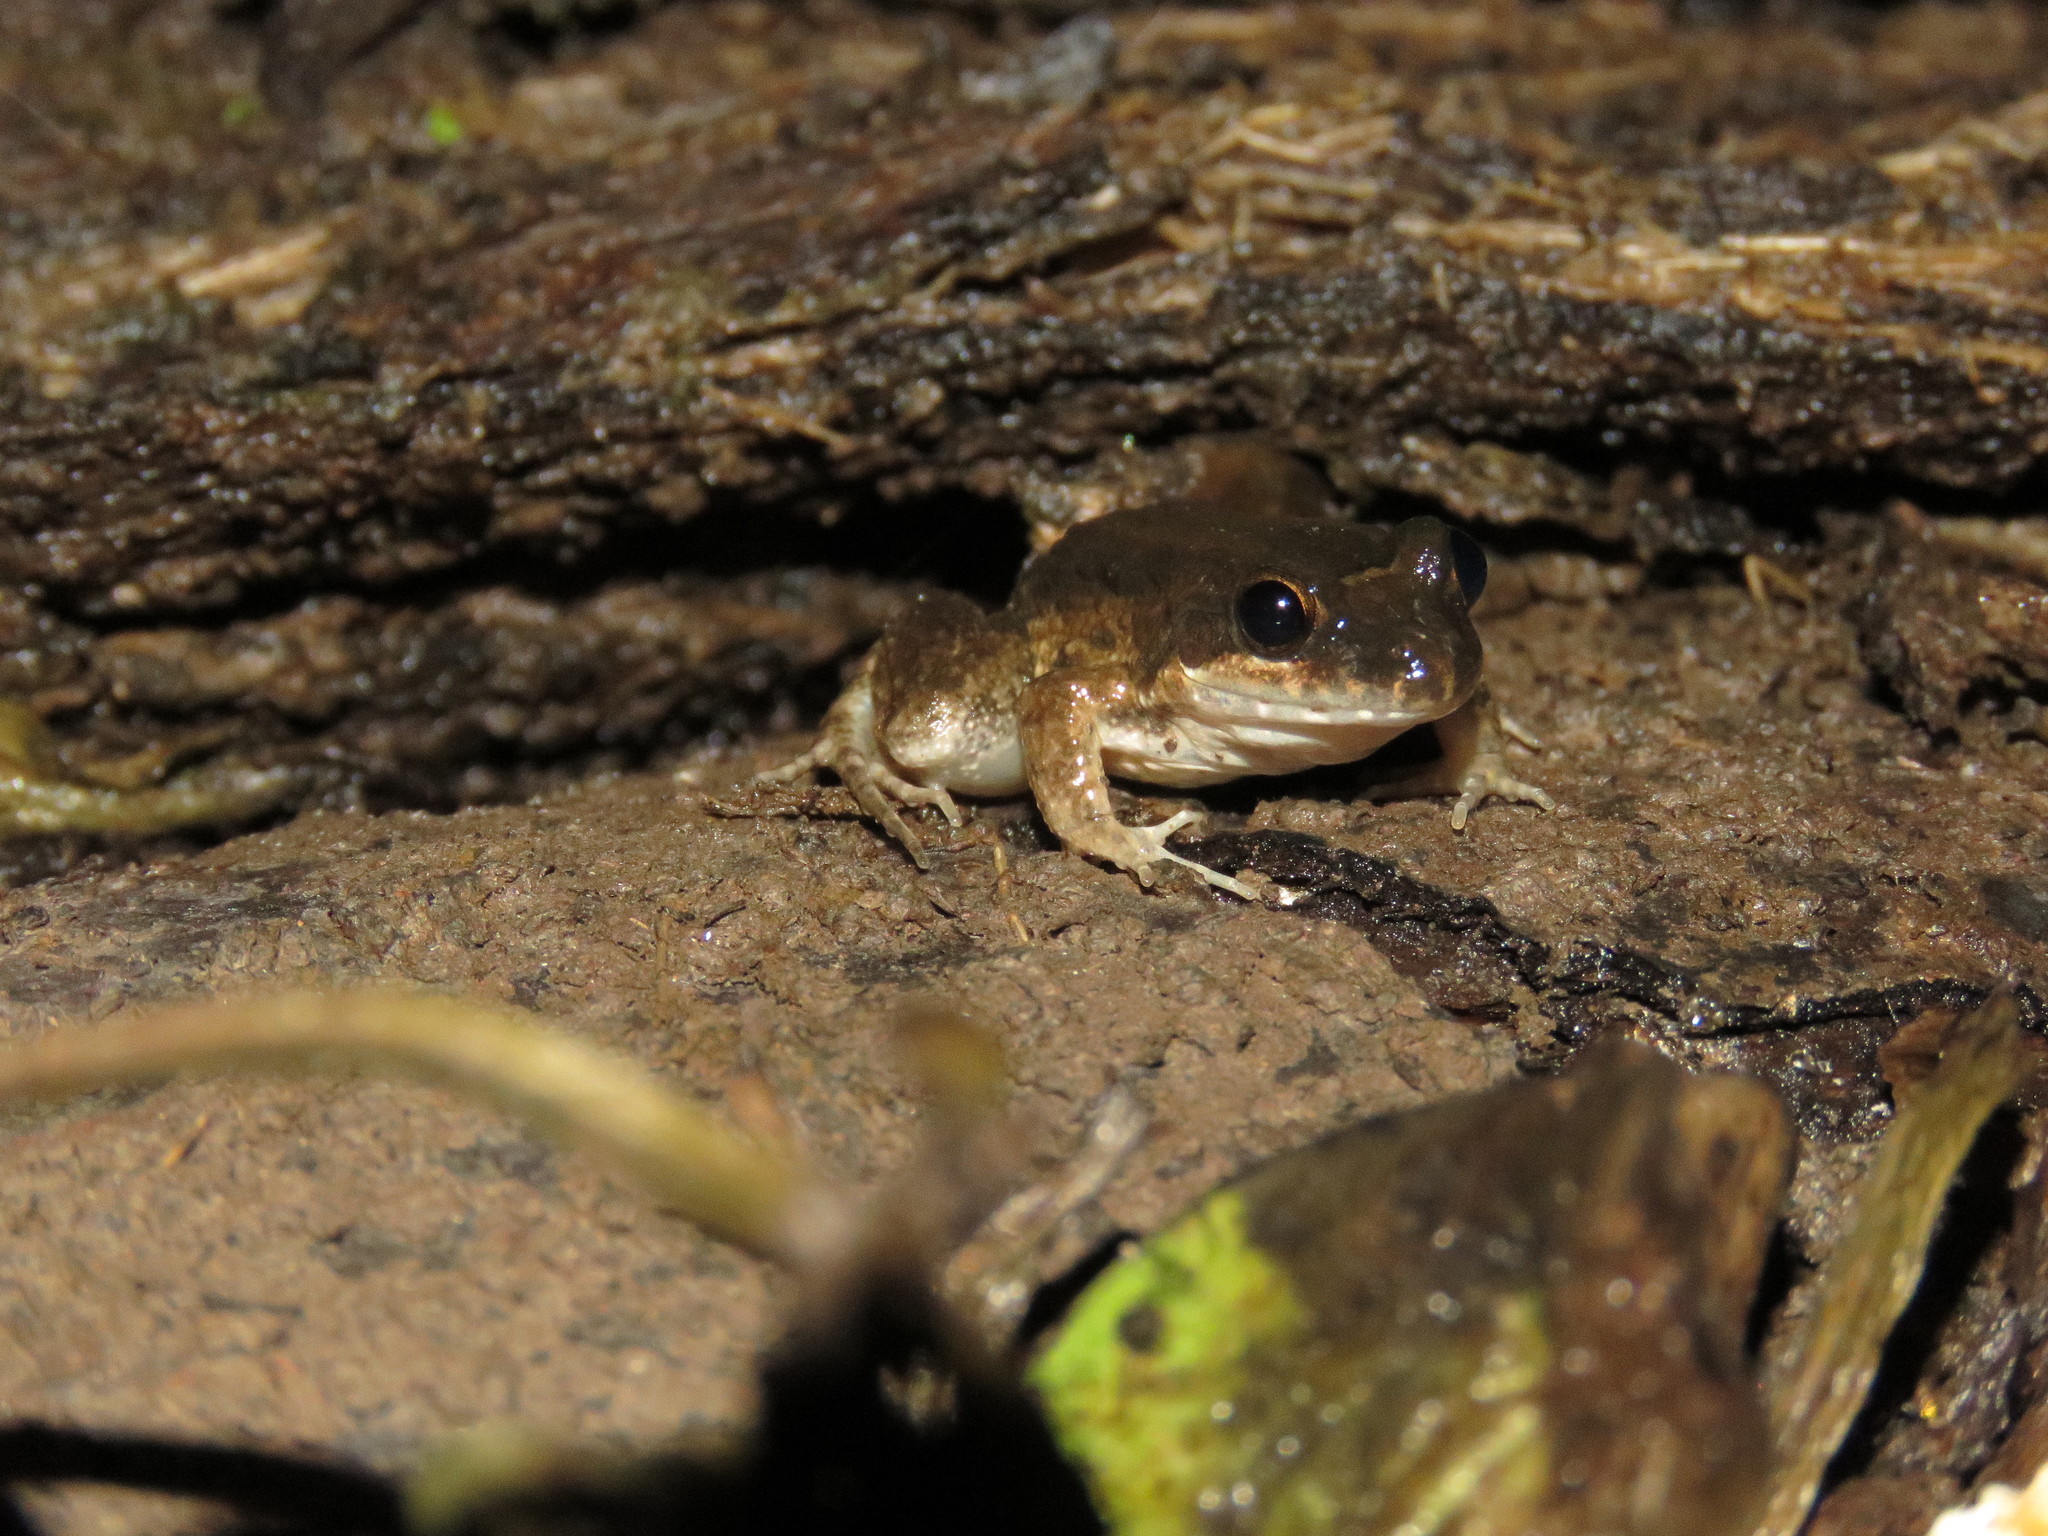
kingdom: Animalia
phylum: Chordata
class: Amphibia
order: Anura
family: Leptodactylidae
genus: Leptodactylus
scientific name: Leptodactylus petersii
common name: Peters' thin-toed frog
